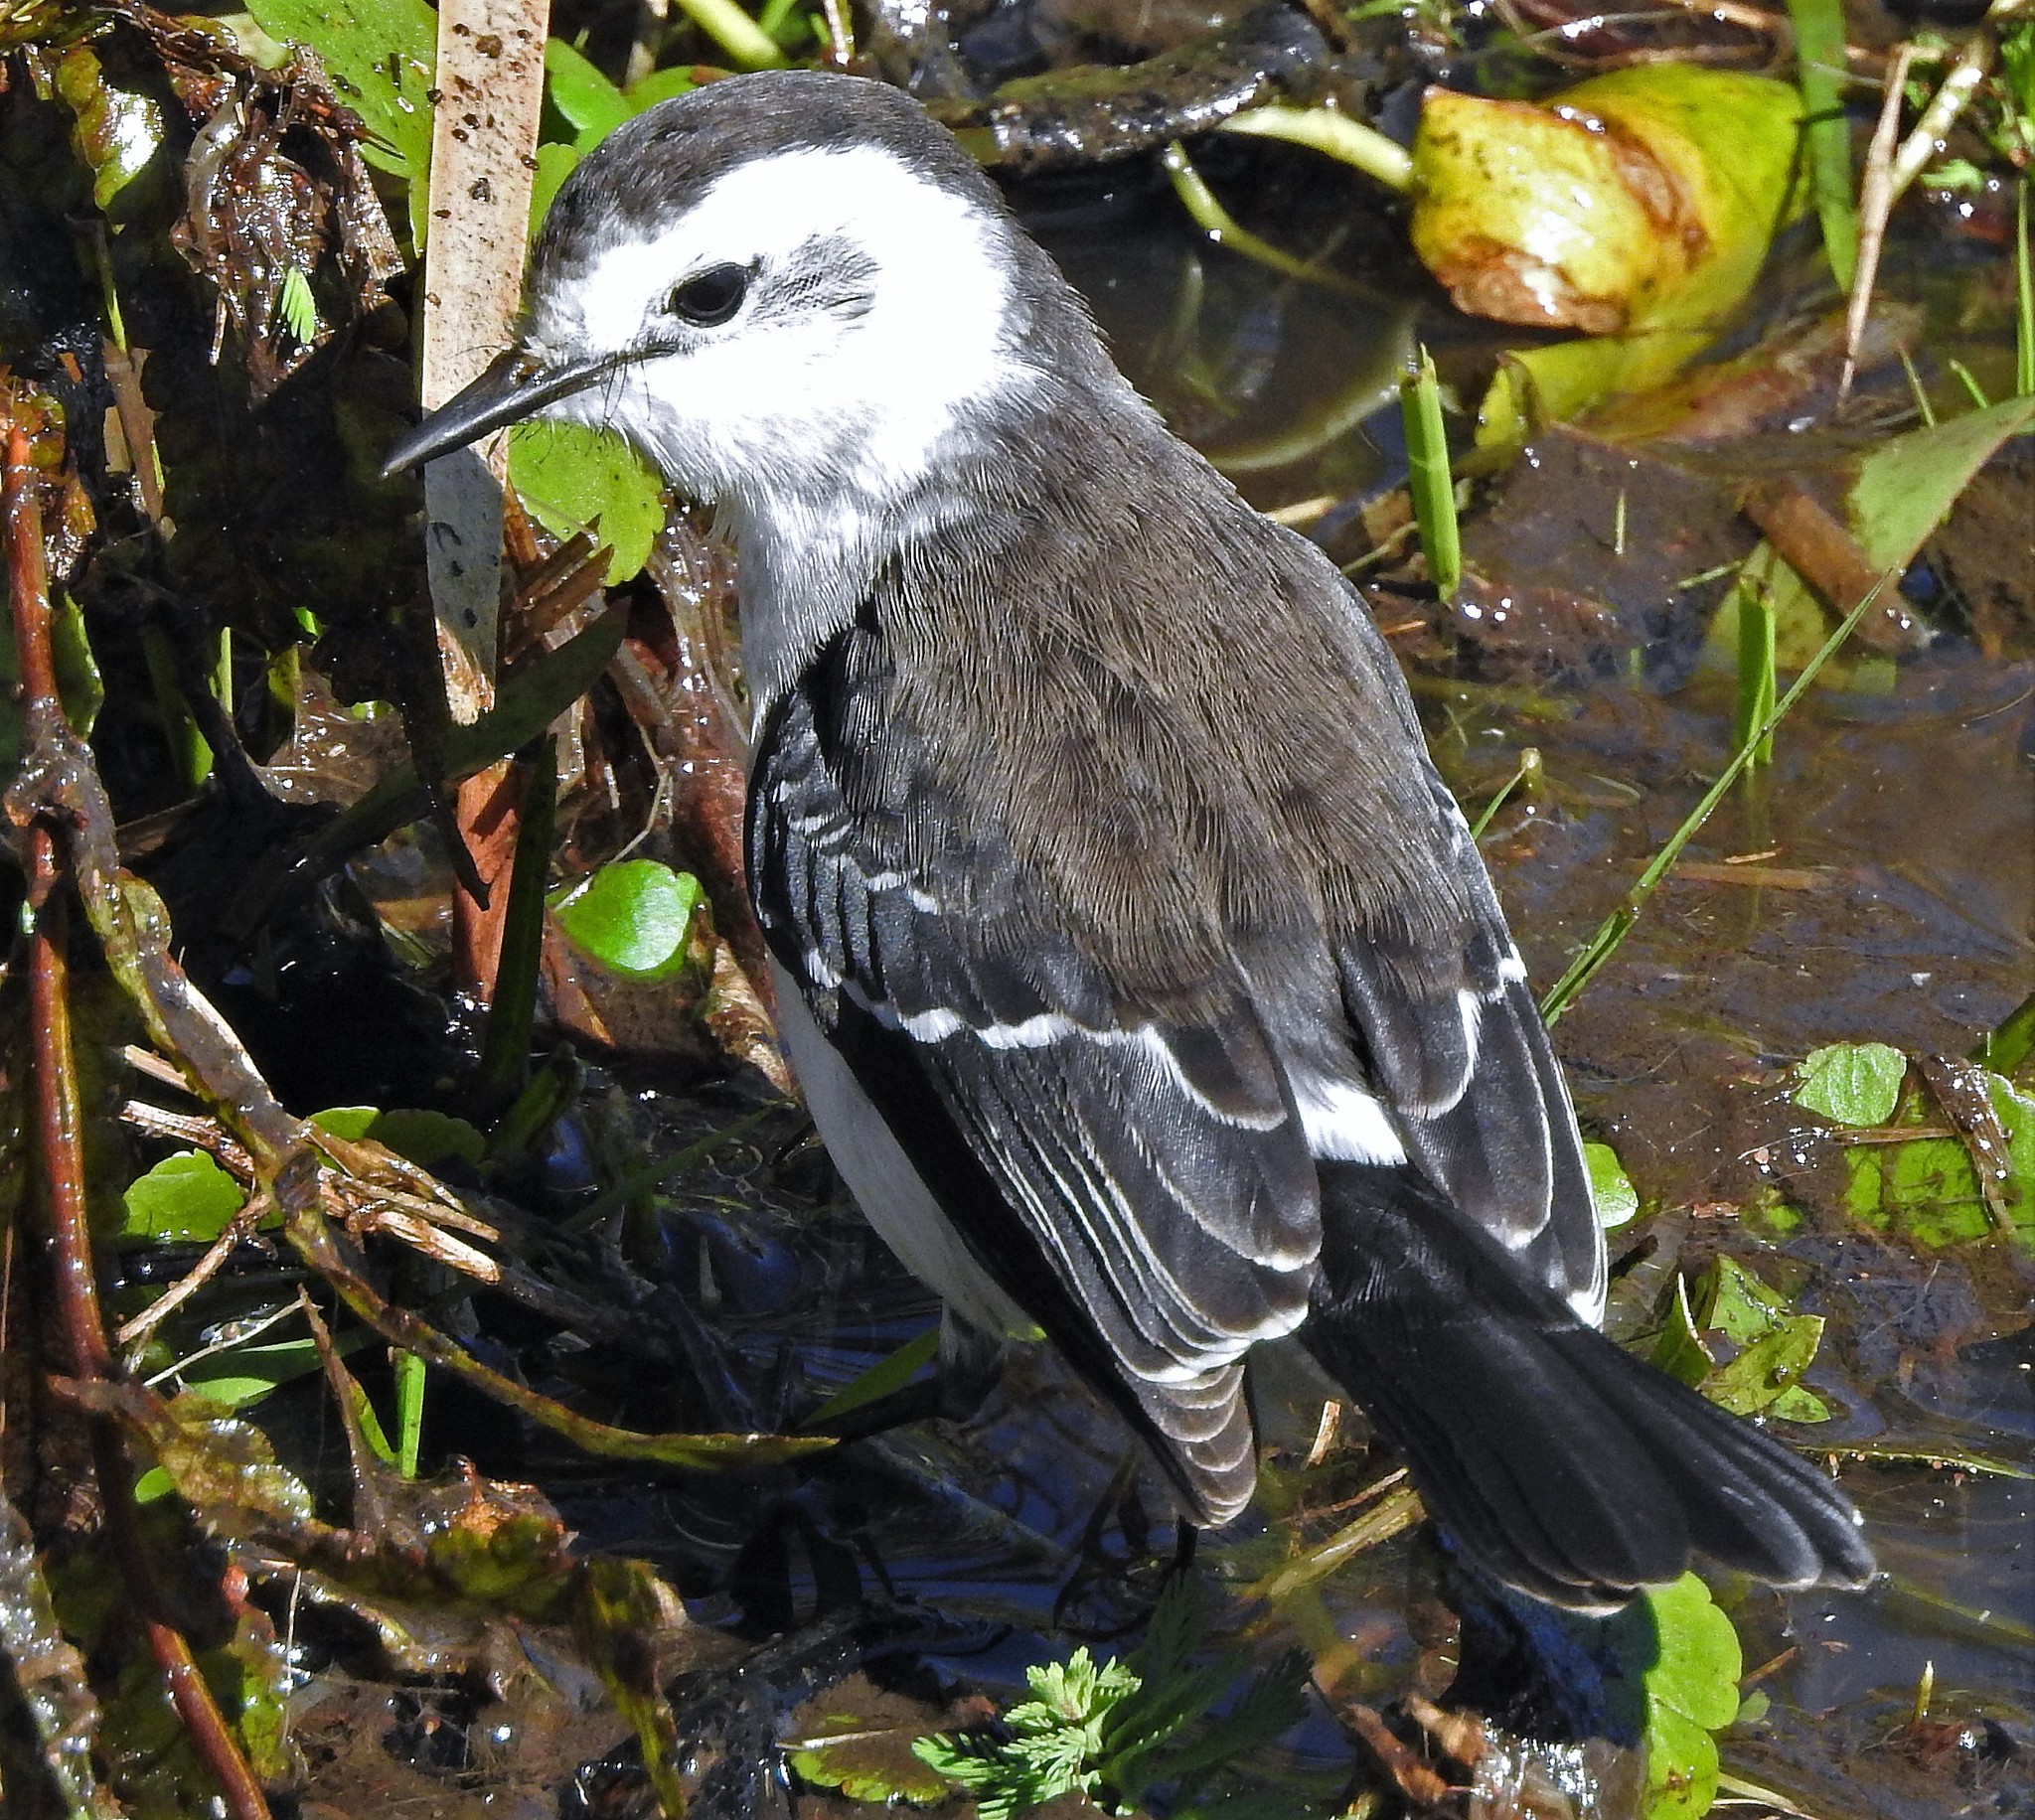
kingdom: Animalia
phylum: Chordata
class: Aves
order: Passeriformes
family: Tyrannidae
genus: Fluvicola
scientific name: Fluvicola pica
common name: Pied water-tyrant
